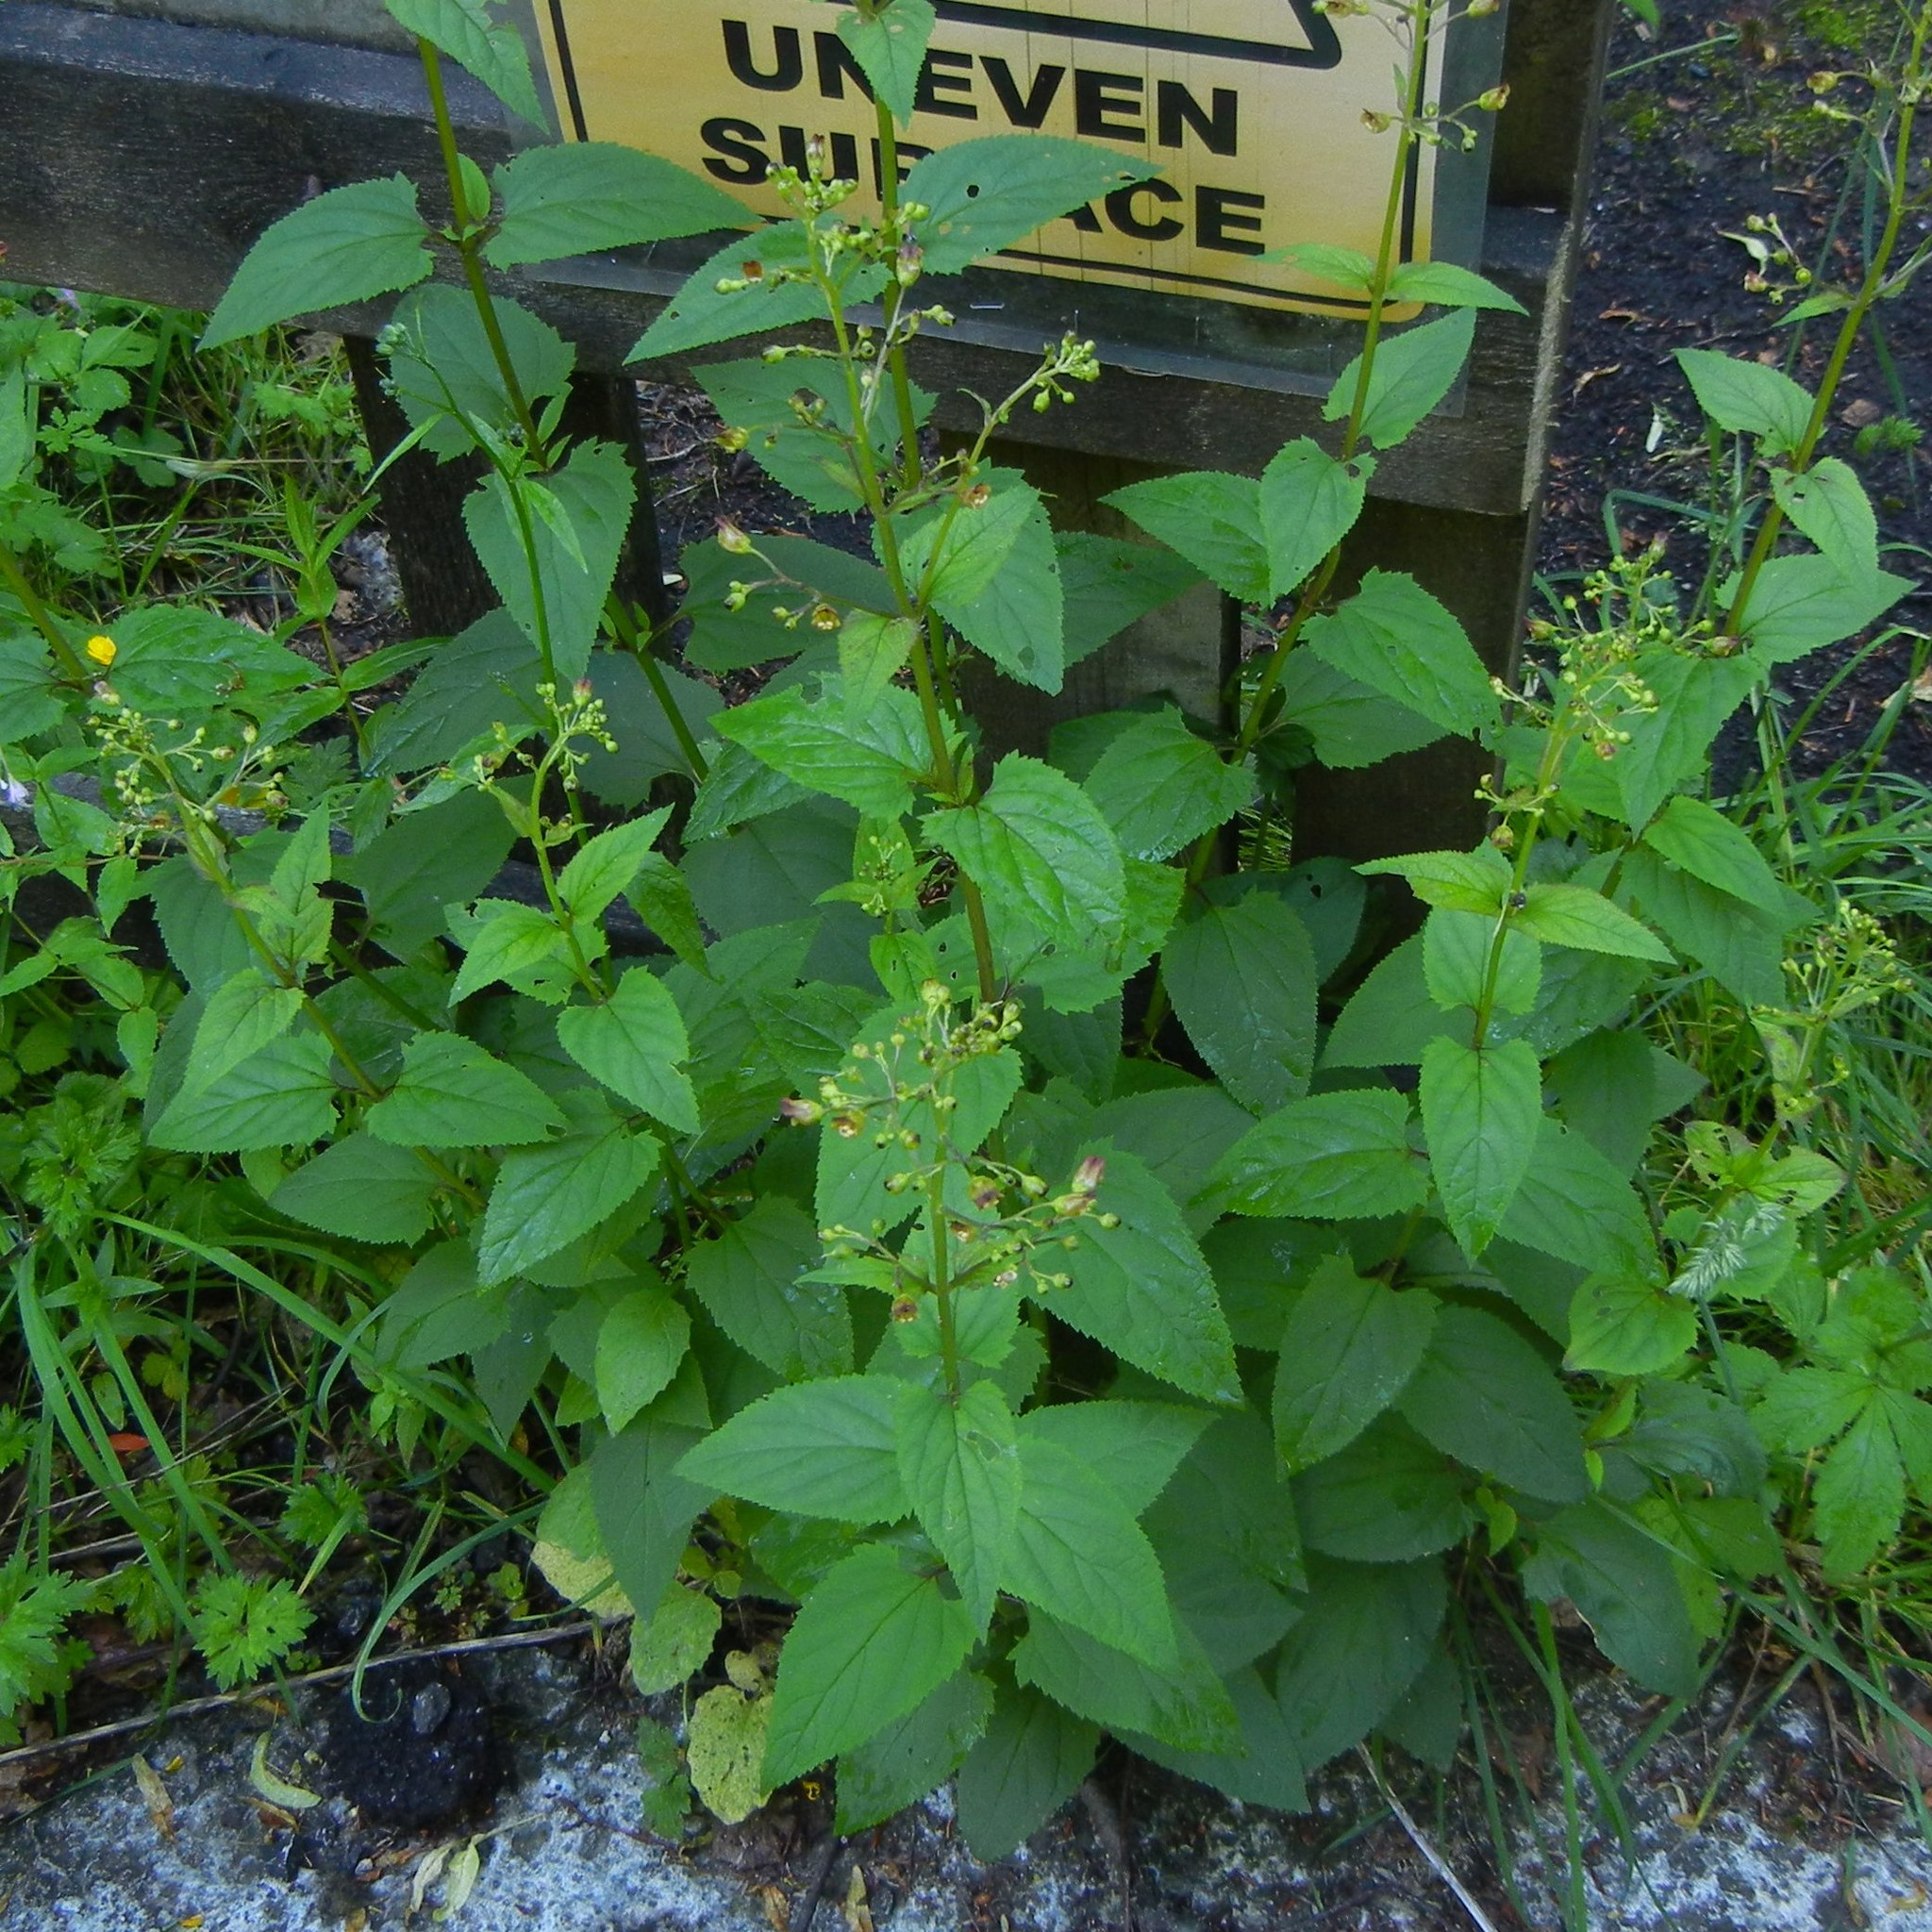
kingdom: Plantae
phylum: Tracheophyta
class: Magnoliopsida
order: Lamiales
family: Scrophulariaceae
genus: Scrophularia
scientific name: Scrophularia nodosa
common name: Common figwort
